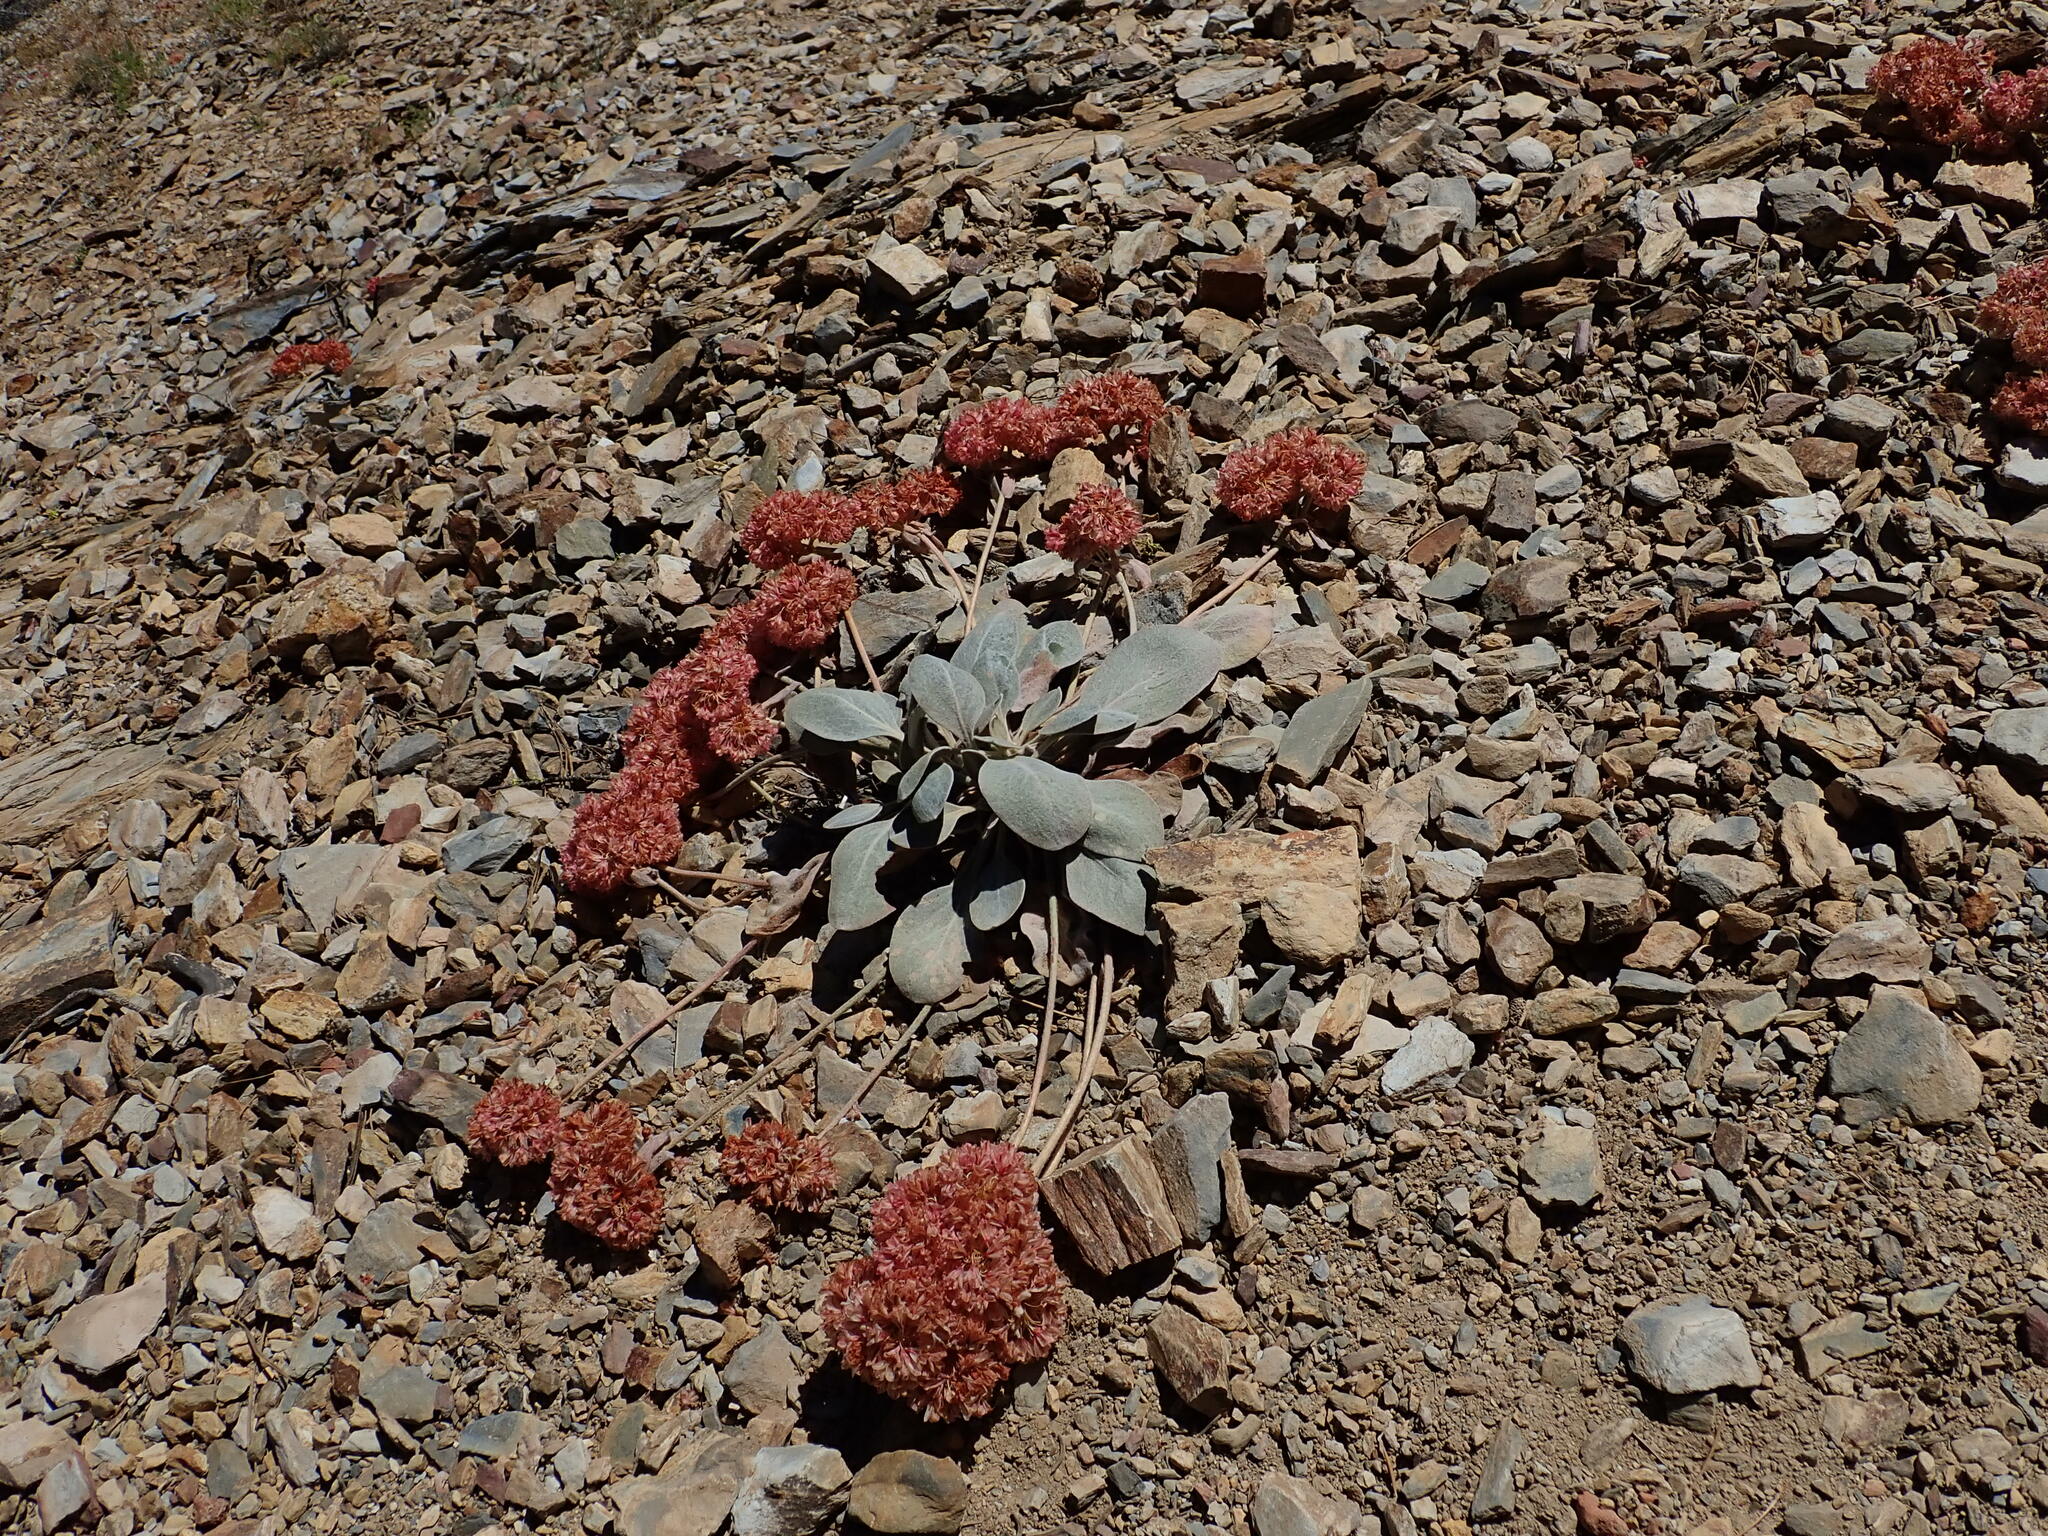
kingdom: Plantae
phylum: Tracheophyta
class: Magnoliopsida
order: Caryophyllales
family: Polygonaceae
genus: Eriogonum
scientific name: Eriogonum lobbii
